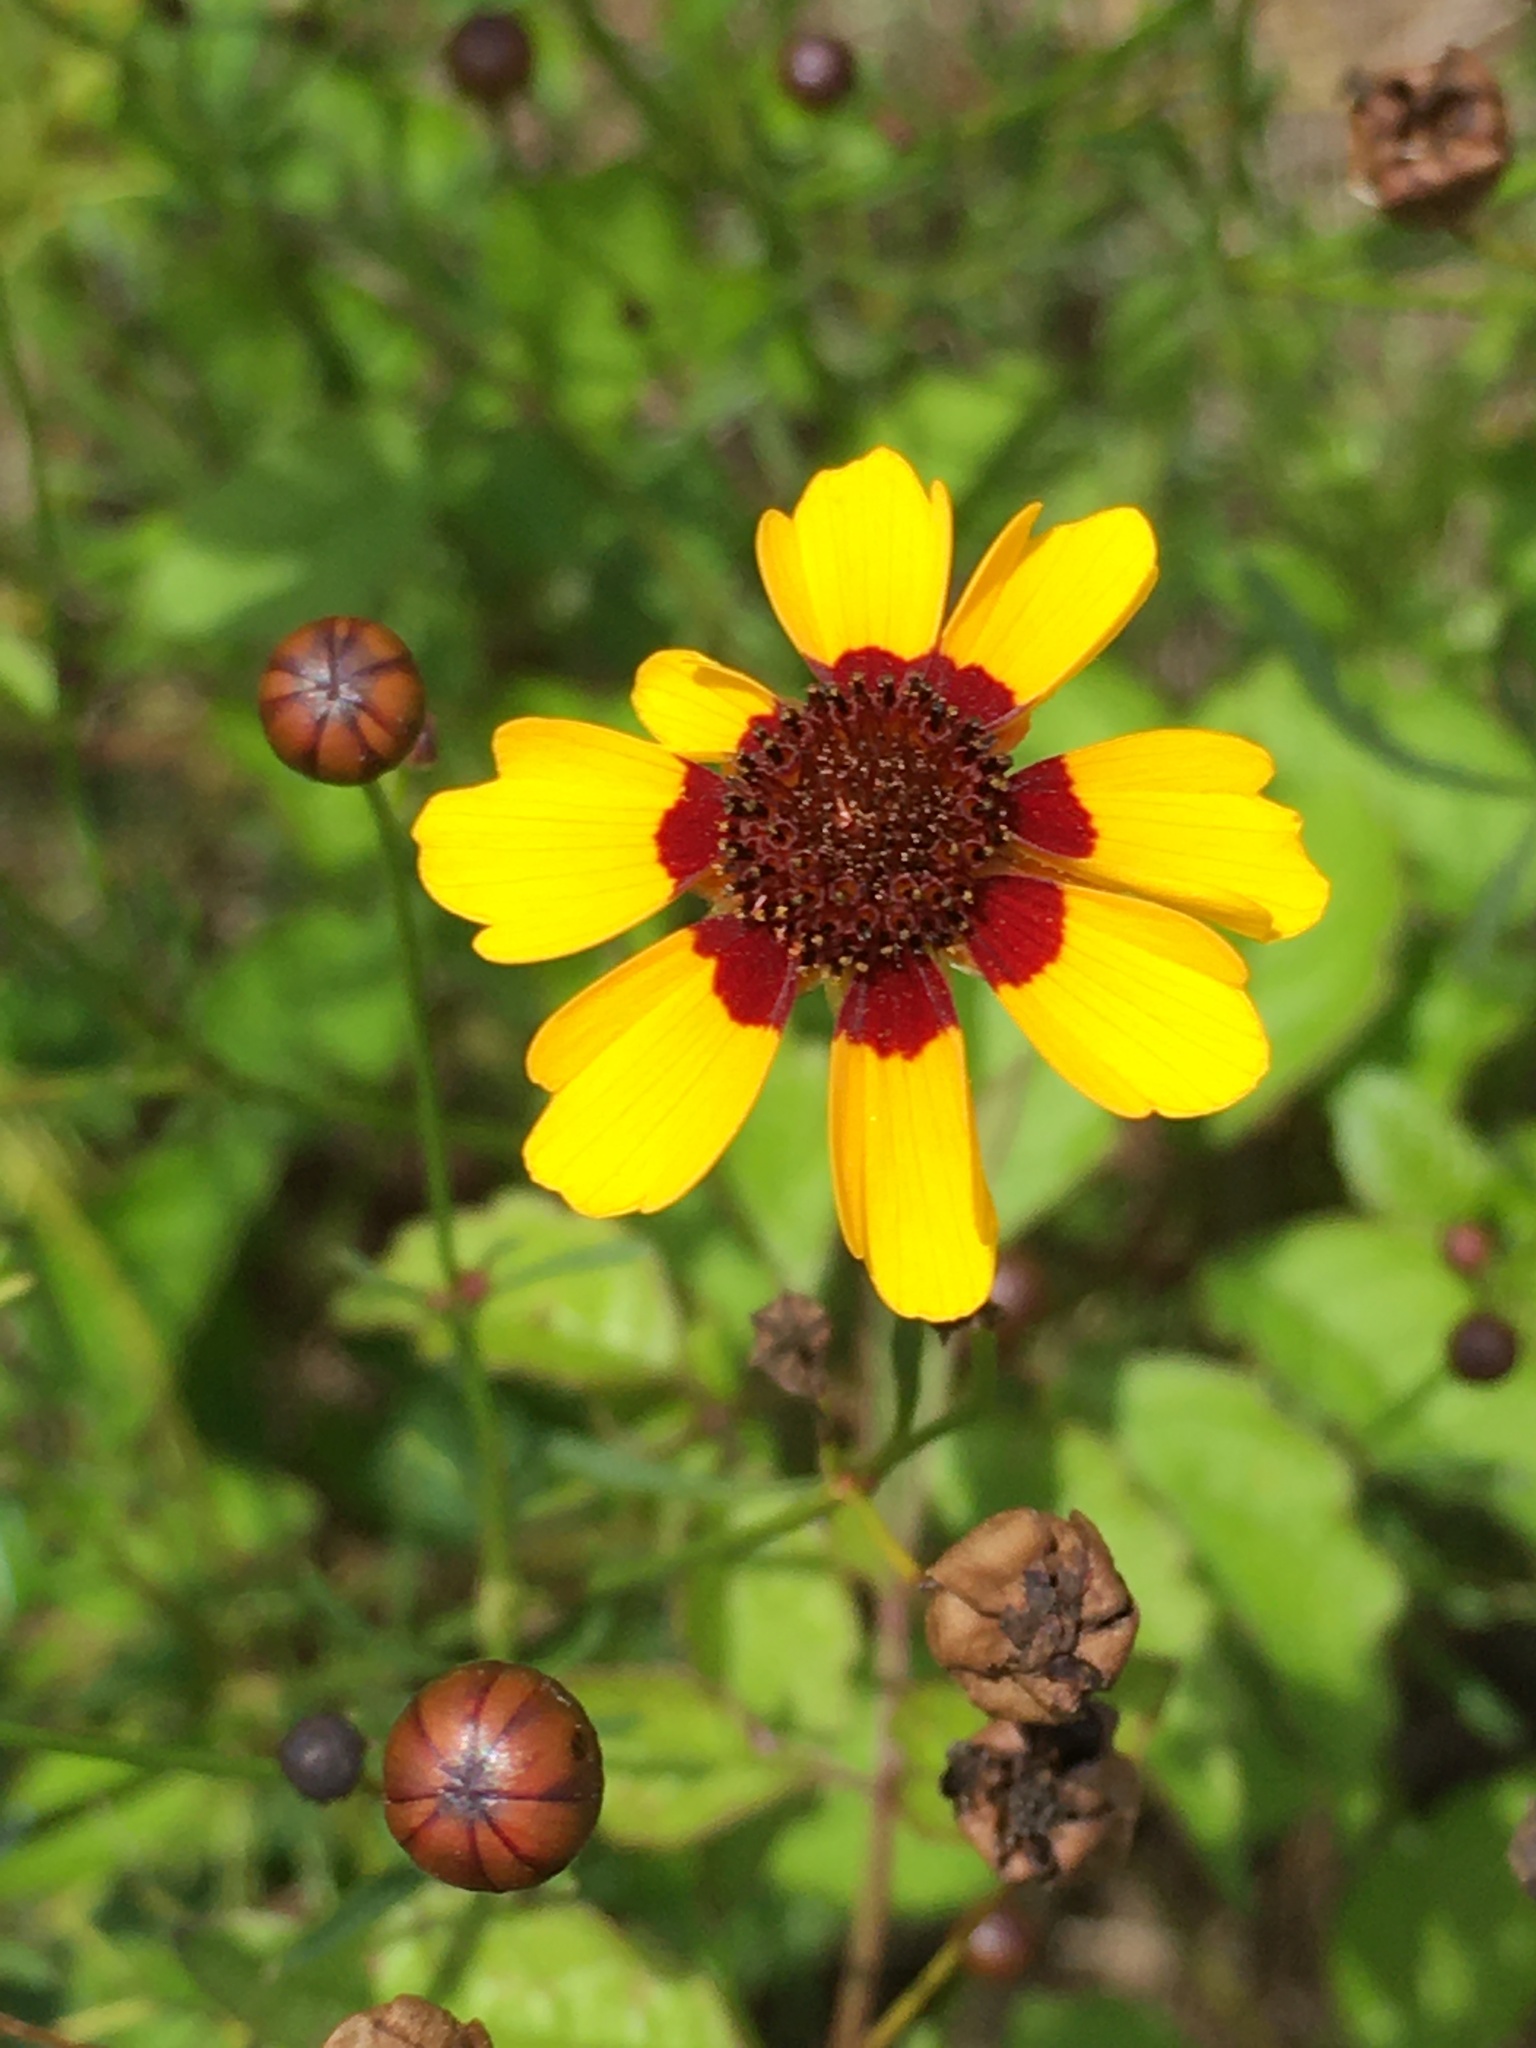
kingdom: Plantae
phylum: Tracheophyta
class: Magnoliopsida
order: Asterales
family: Asteraceae
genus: Coreopsis
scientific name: Coreopsis tinctoria
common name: Garden tickseed
